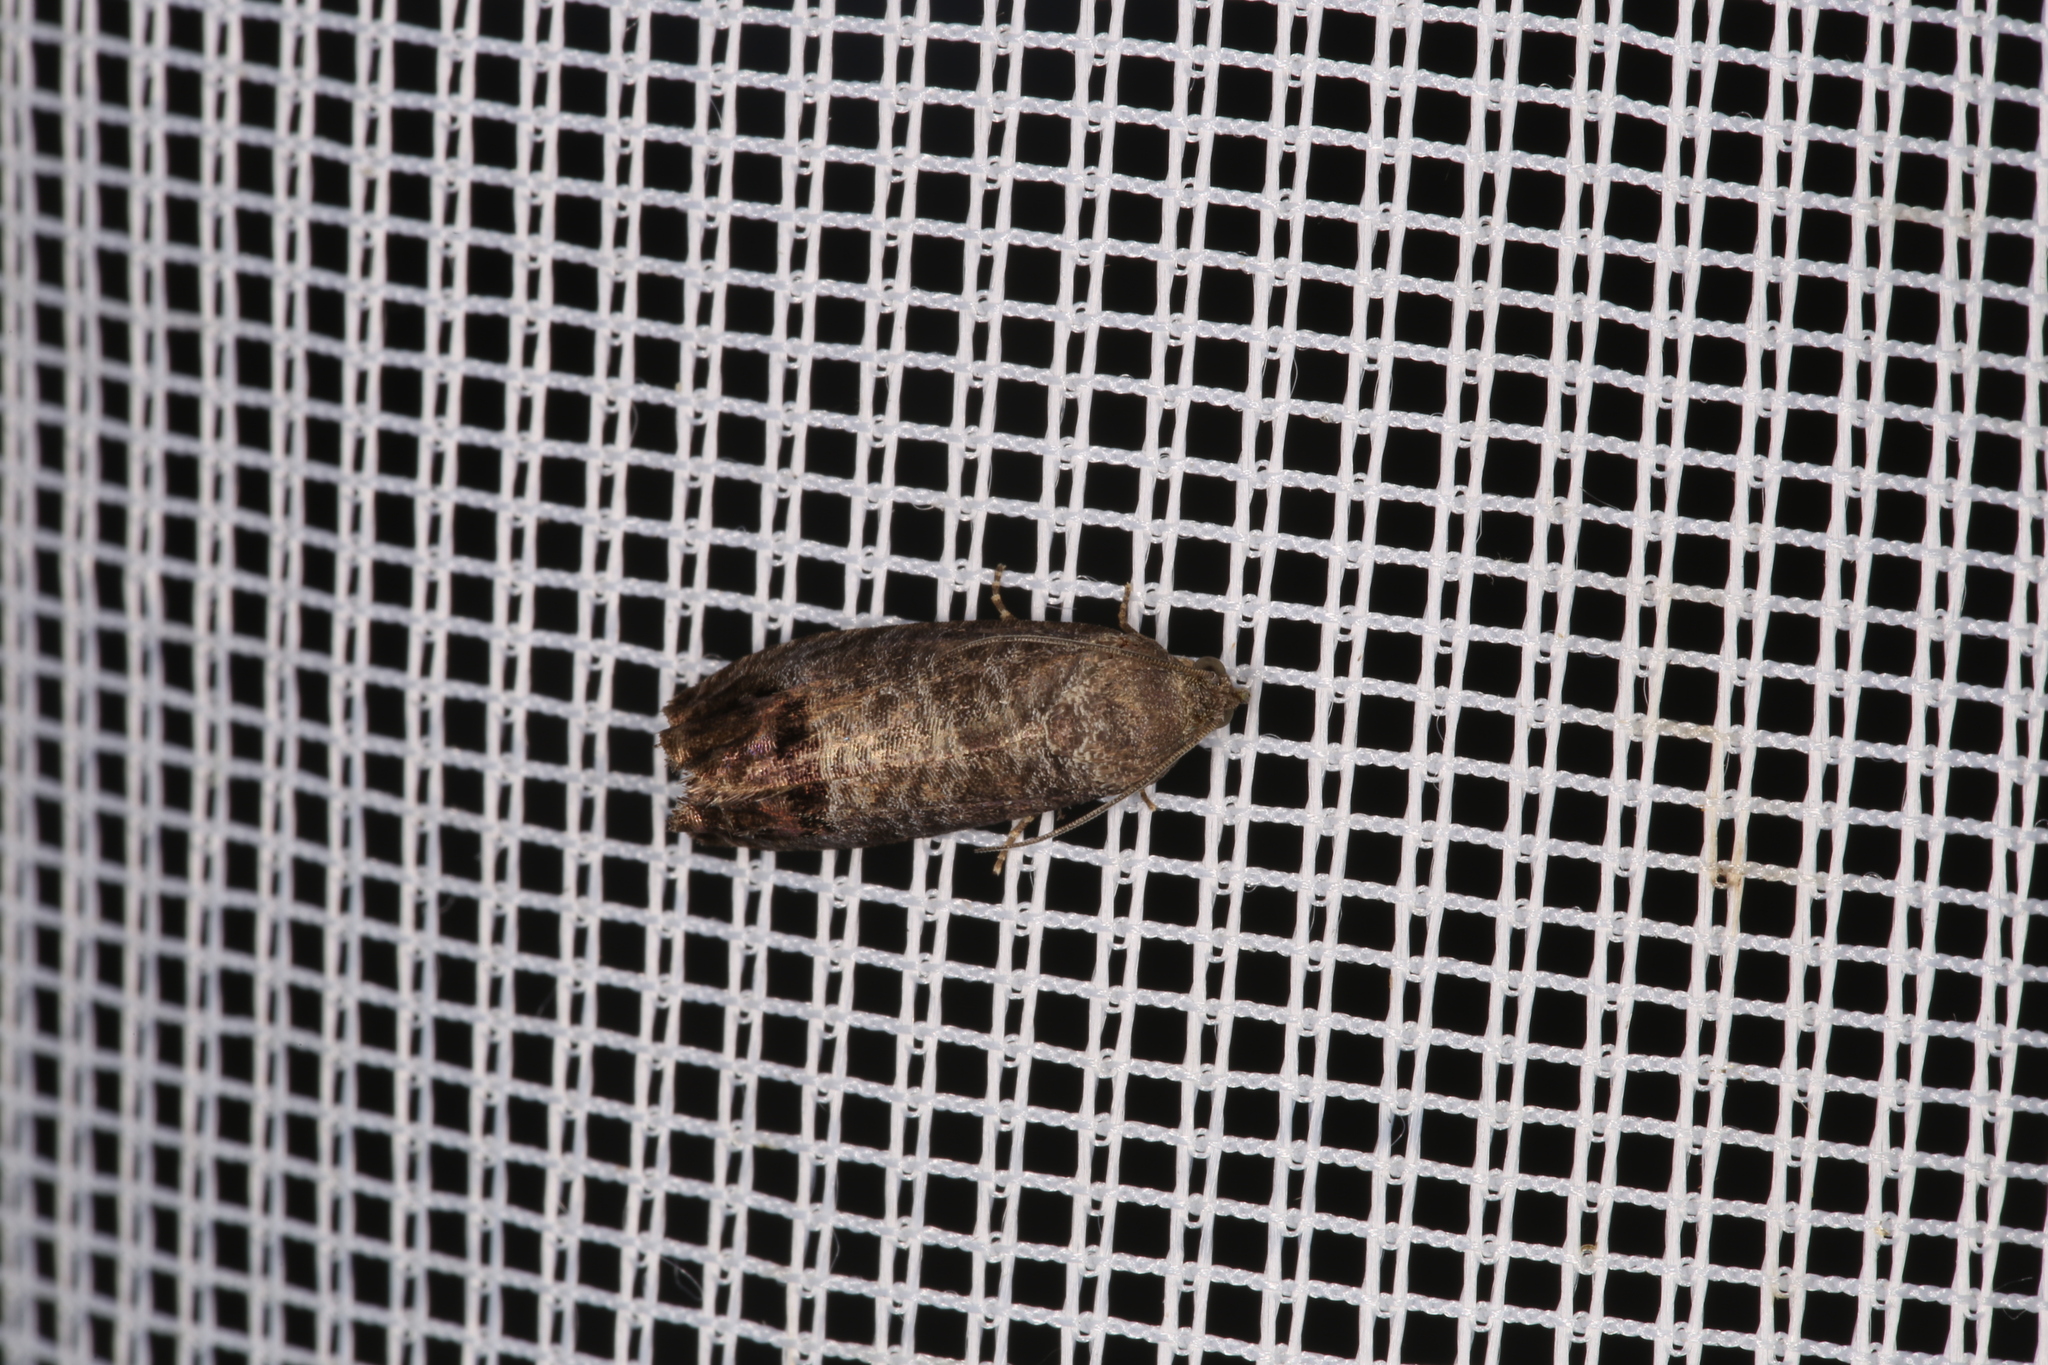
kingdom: Animalia
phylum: Arthropoda
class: Insecta
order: Lepidoptera
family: Tortricidae
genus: Cydia
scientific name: Cydia pomonella
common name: Codling moth
